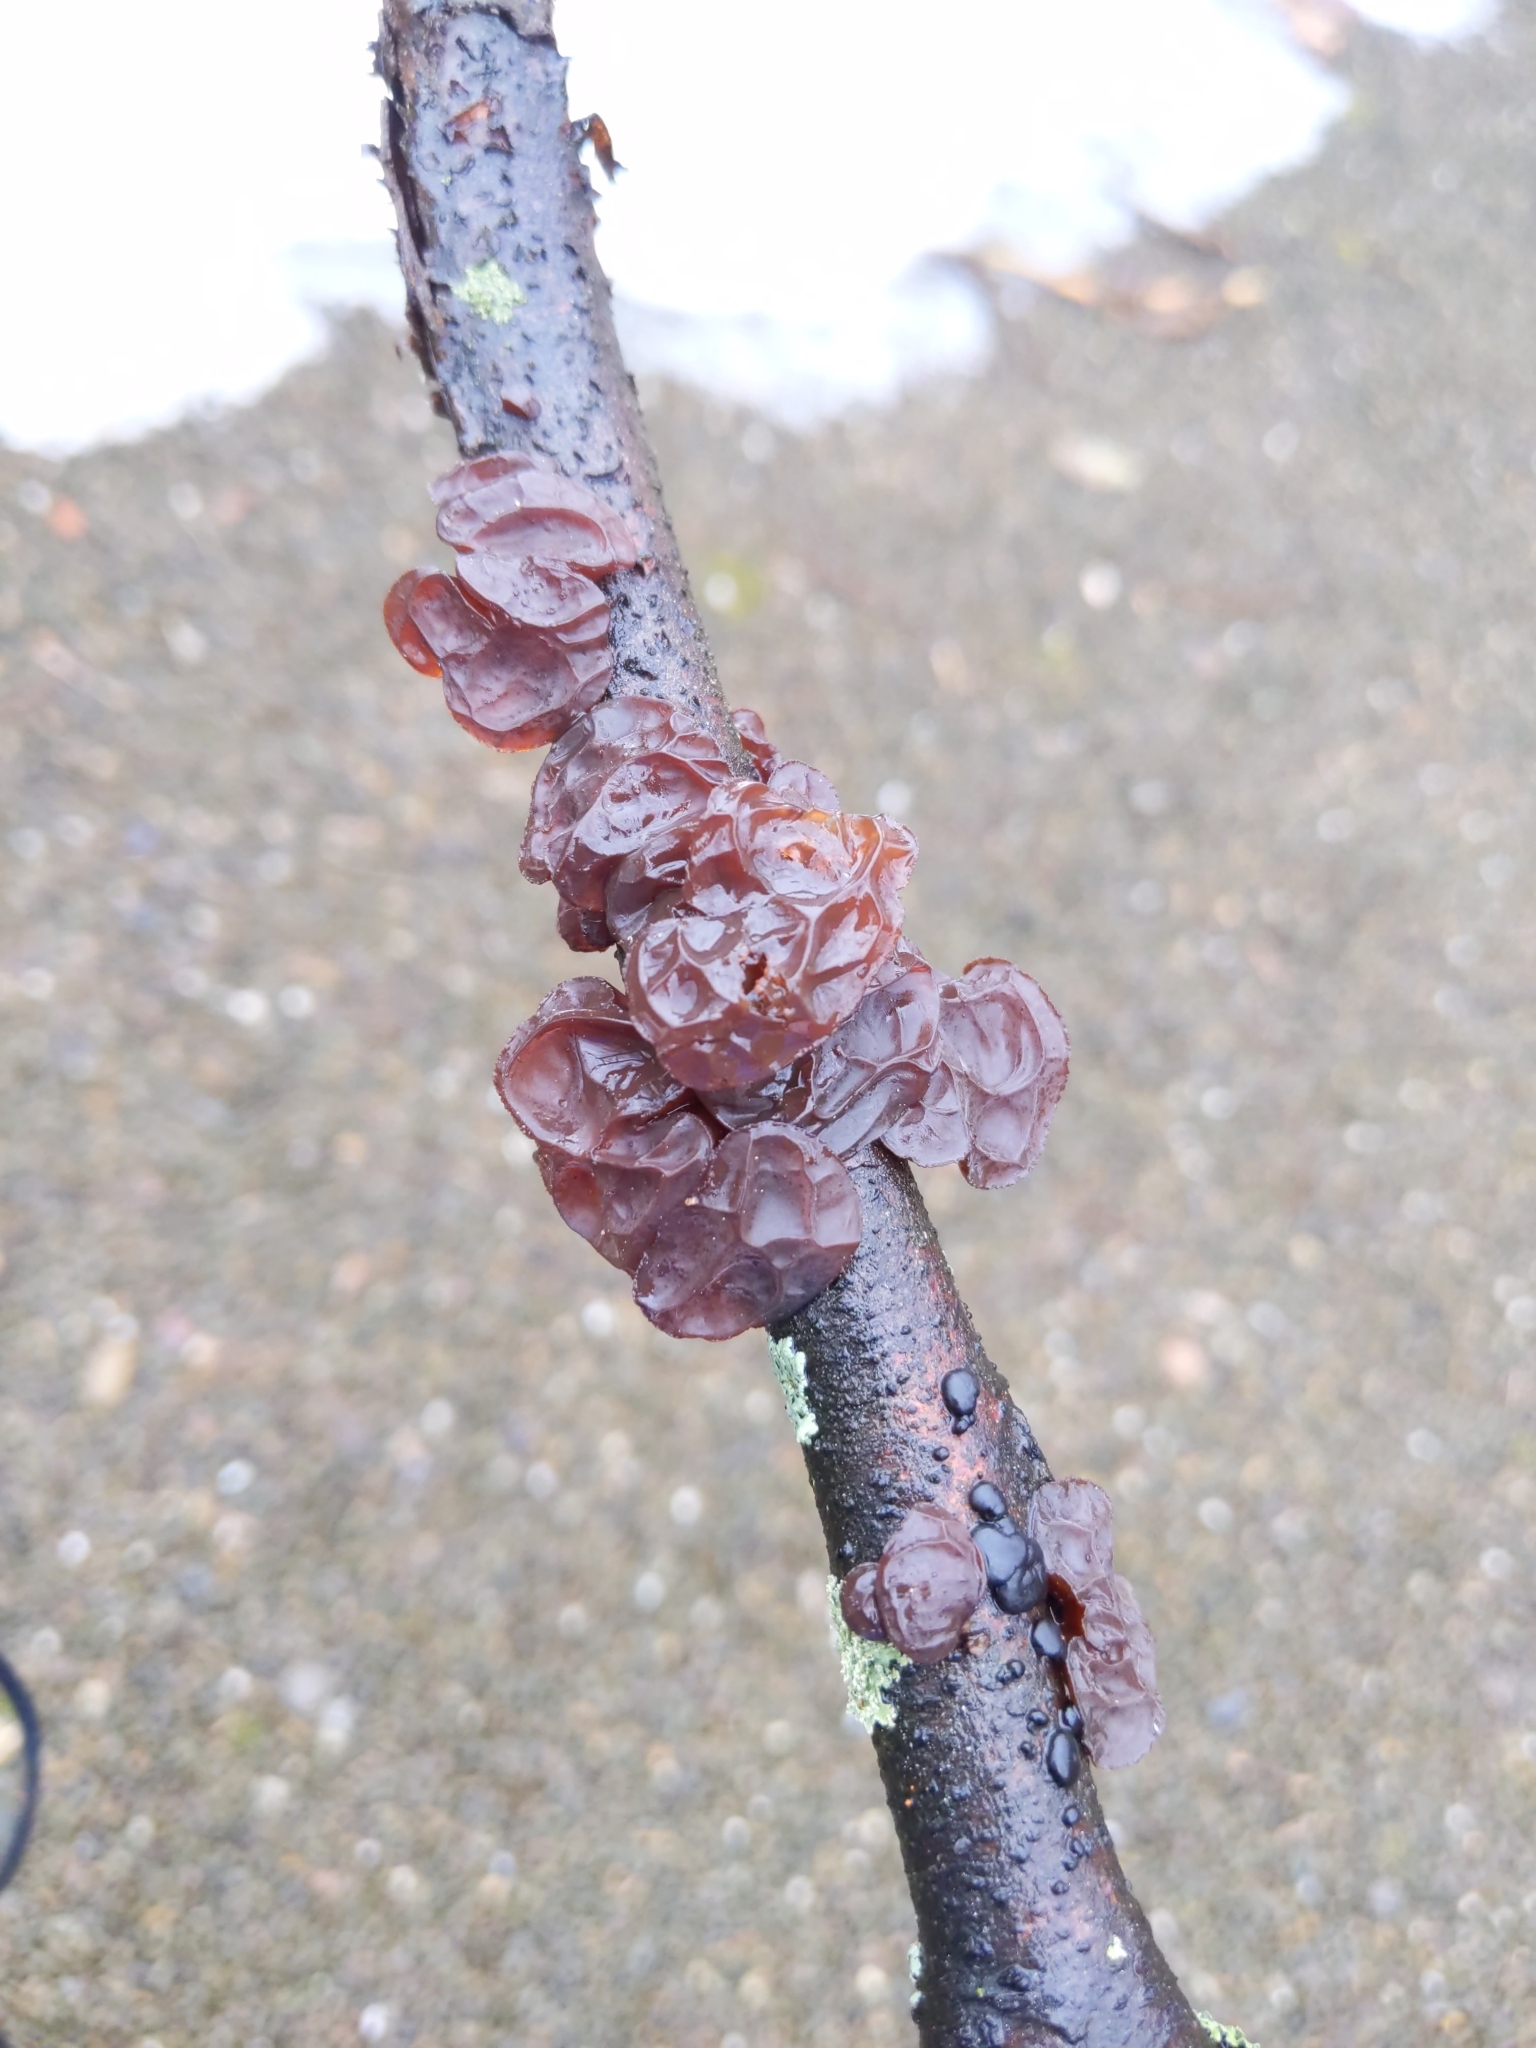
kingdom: Fungi
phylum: Basidiomycota
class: Agaricomycetes
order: Auriculariales
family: Auriculariaceae
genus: Exidia
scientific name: Exidia
